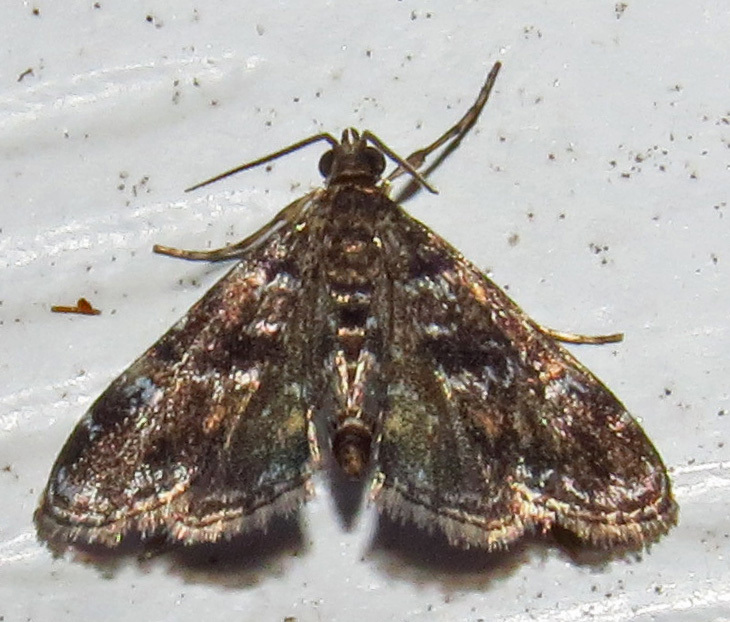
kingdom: Animalia
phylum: Arthropoda
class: Insecta
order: Lepidoptera
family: Crambidae
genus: Elophila
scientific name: Elophila obliteralis
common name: Waterlily leafcutter moth
